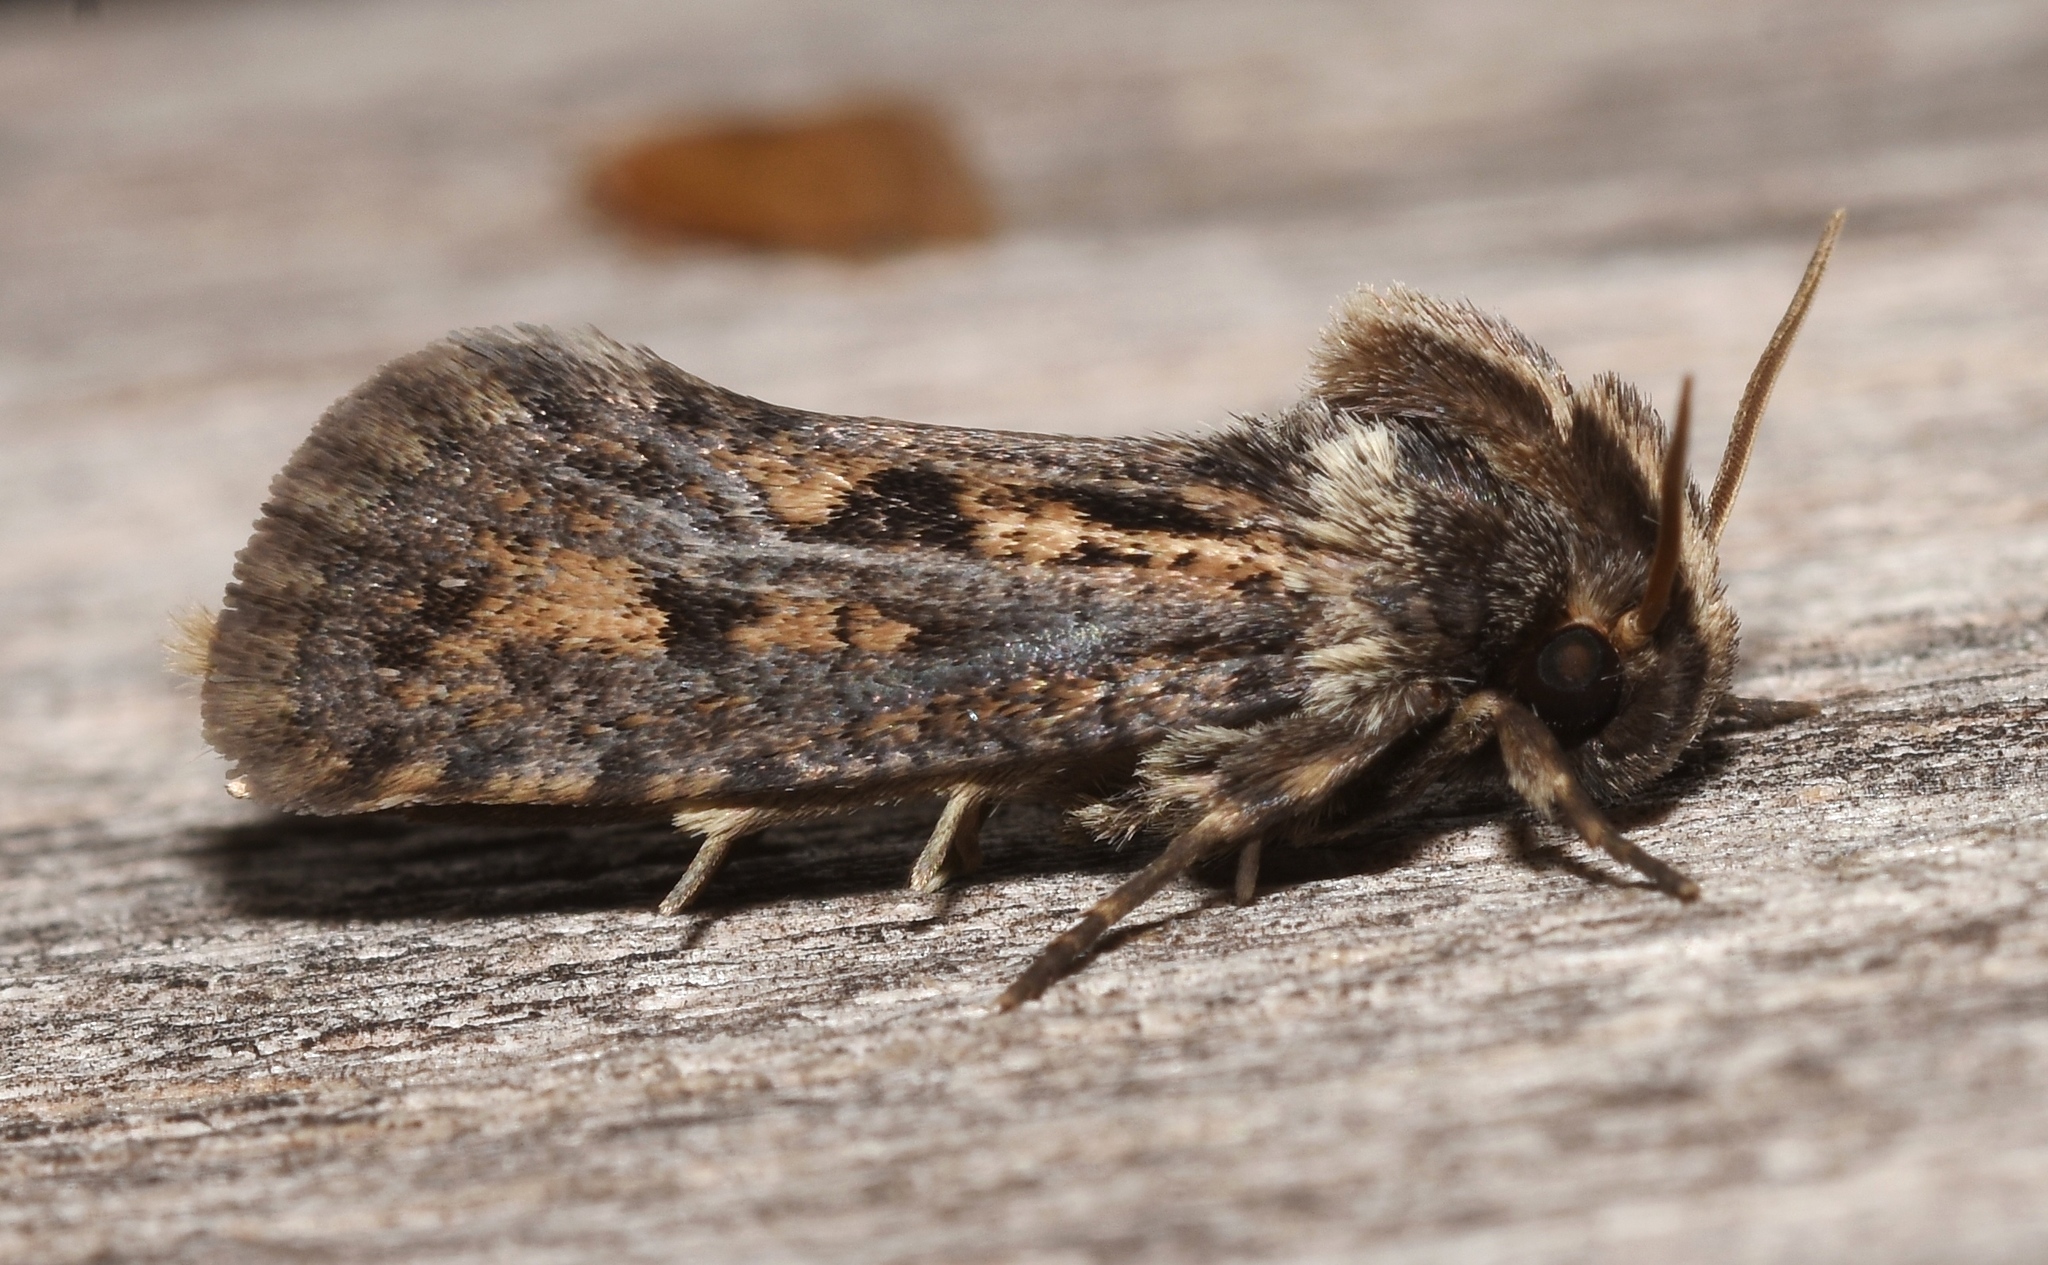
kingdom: Animalia
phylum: Arthropoda
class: Insecta
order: Lepidoptera
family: Tineidae
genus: Acrolophus
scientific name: Acrolophus popeanella
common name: Clemens' grass tubeworm moth
